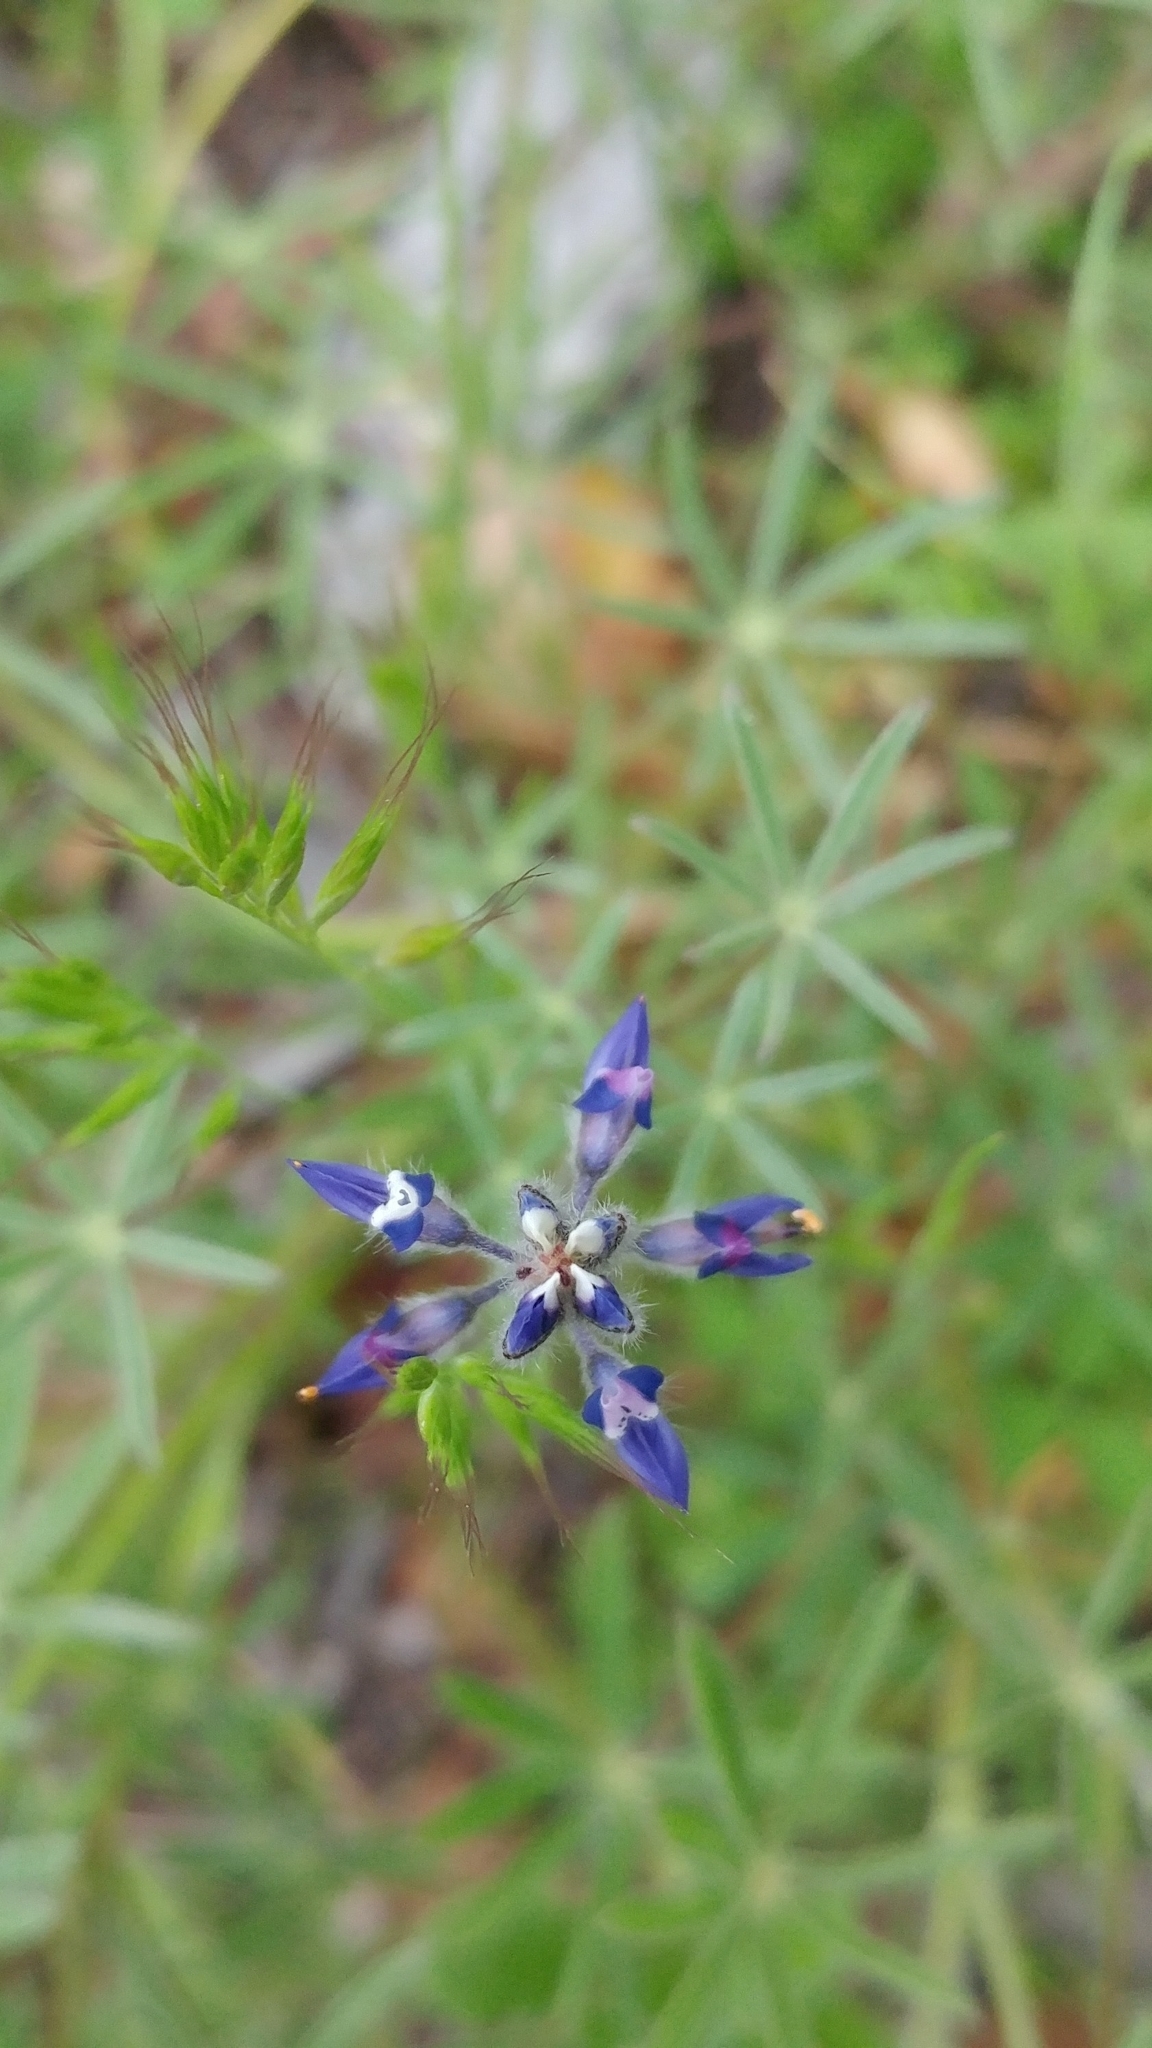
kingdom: Plantae
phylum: Tracheophyta
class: Magnoliopsida
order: Fabales
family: Fabaceae
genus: Lupinus
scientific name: Lupinus bicolor
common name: Miniature lupine
